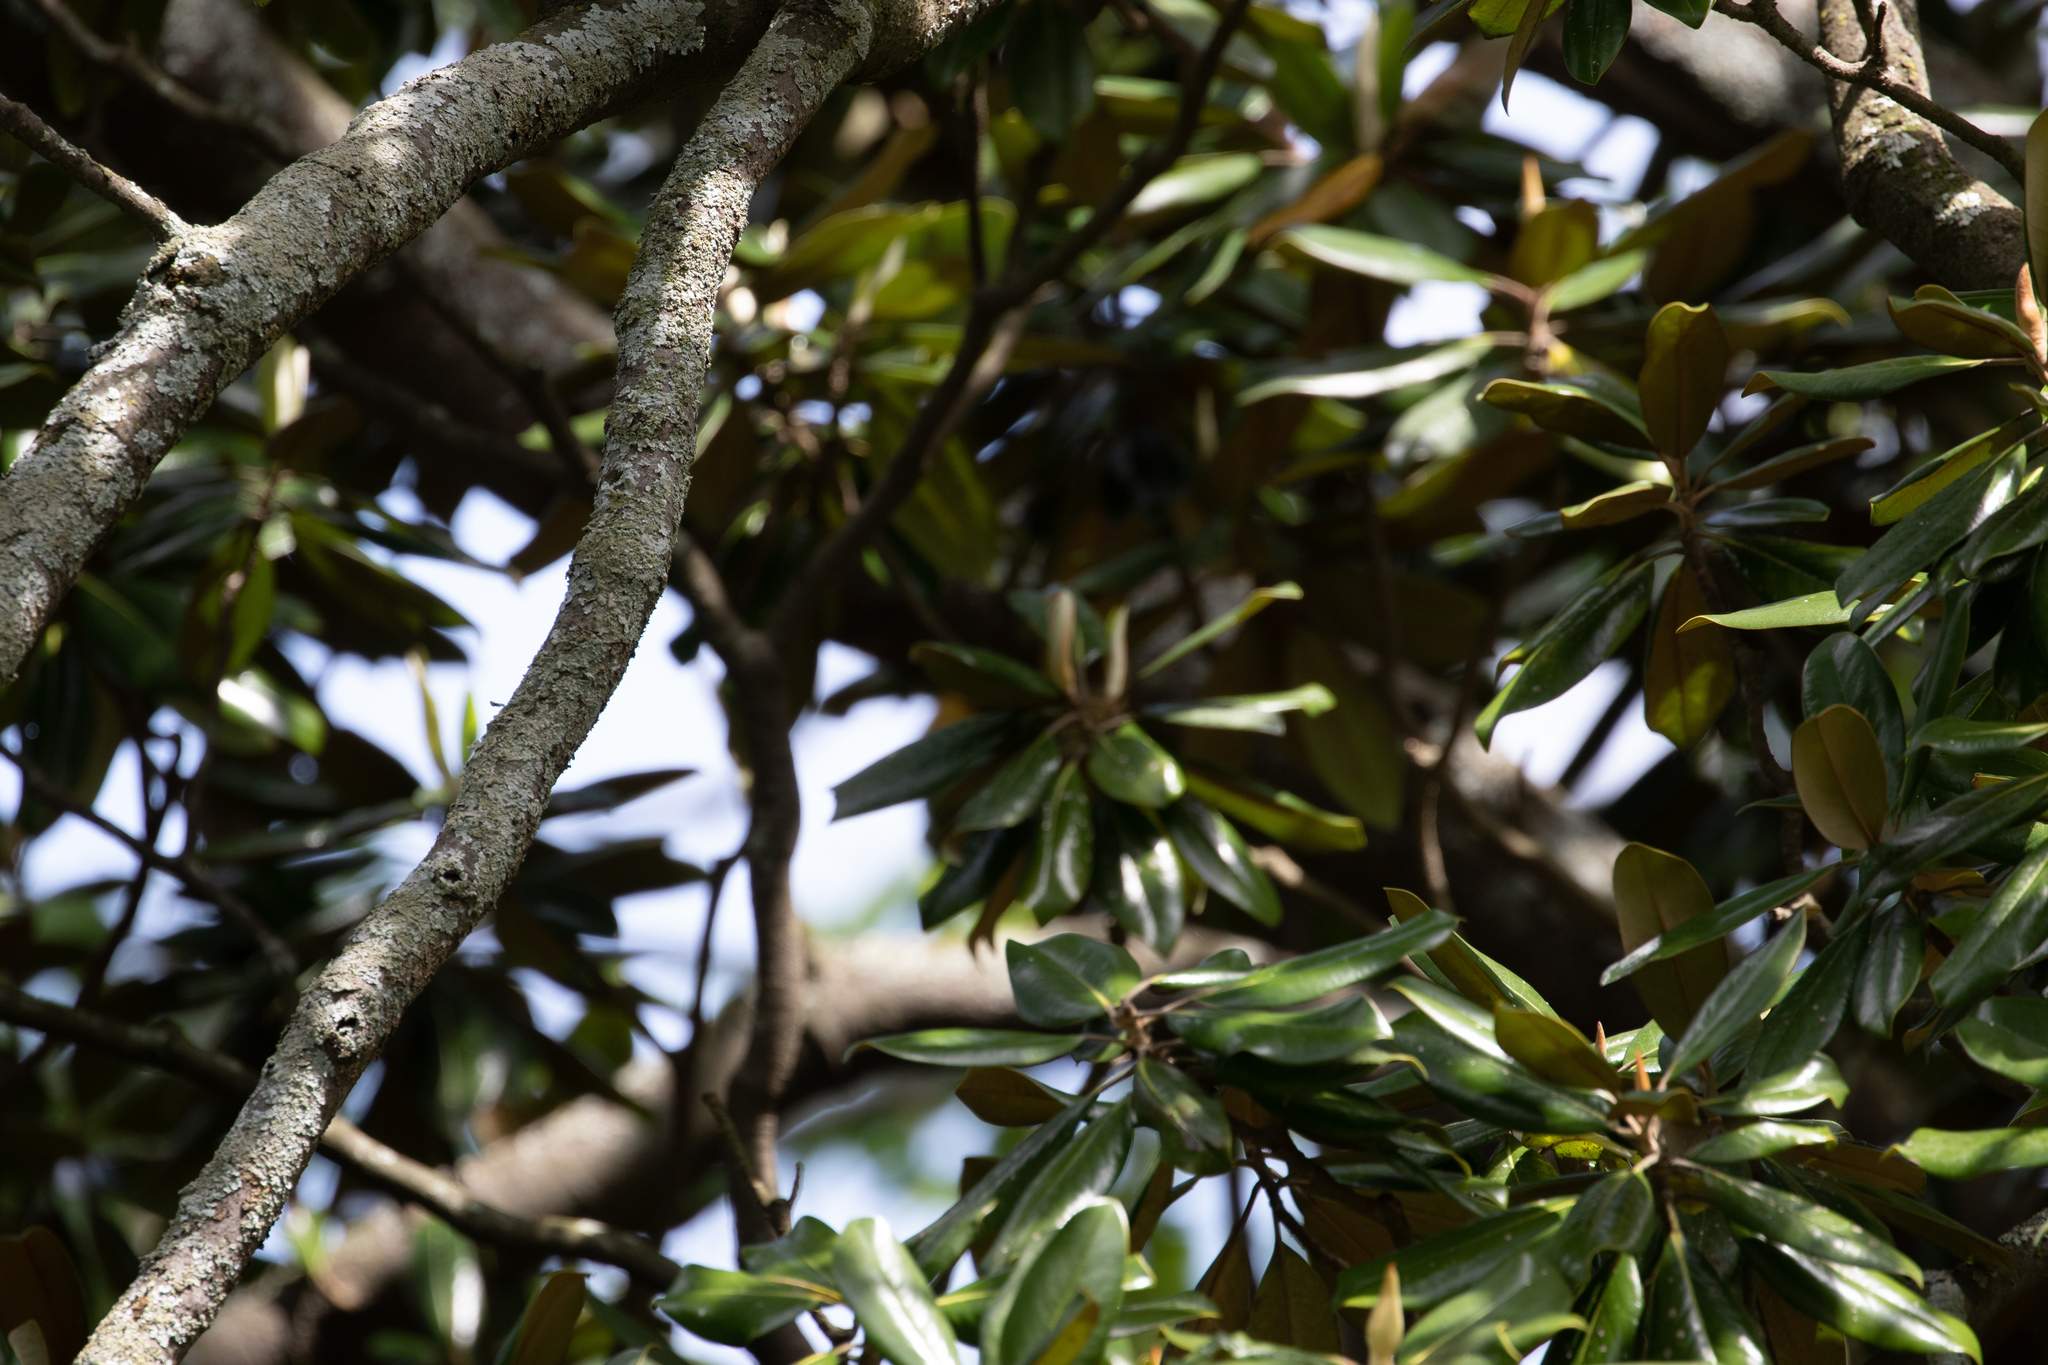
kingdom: Plantae
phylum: Tracheophyta
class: Magnoliopsida
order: Magnoliales
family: Magnoliaceae
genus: Magnolia
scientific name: Magnolia grandiflora
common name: Southern magnolia
